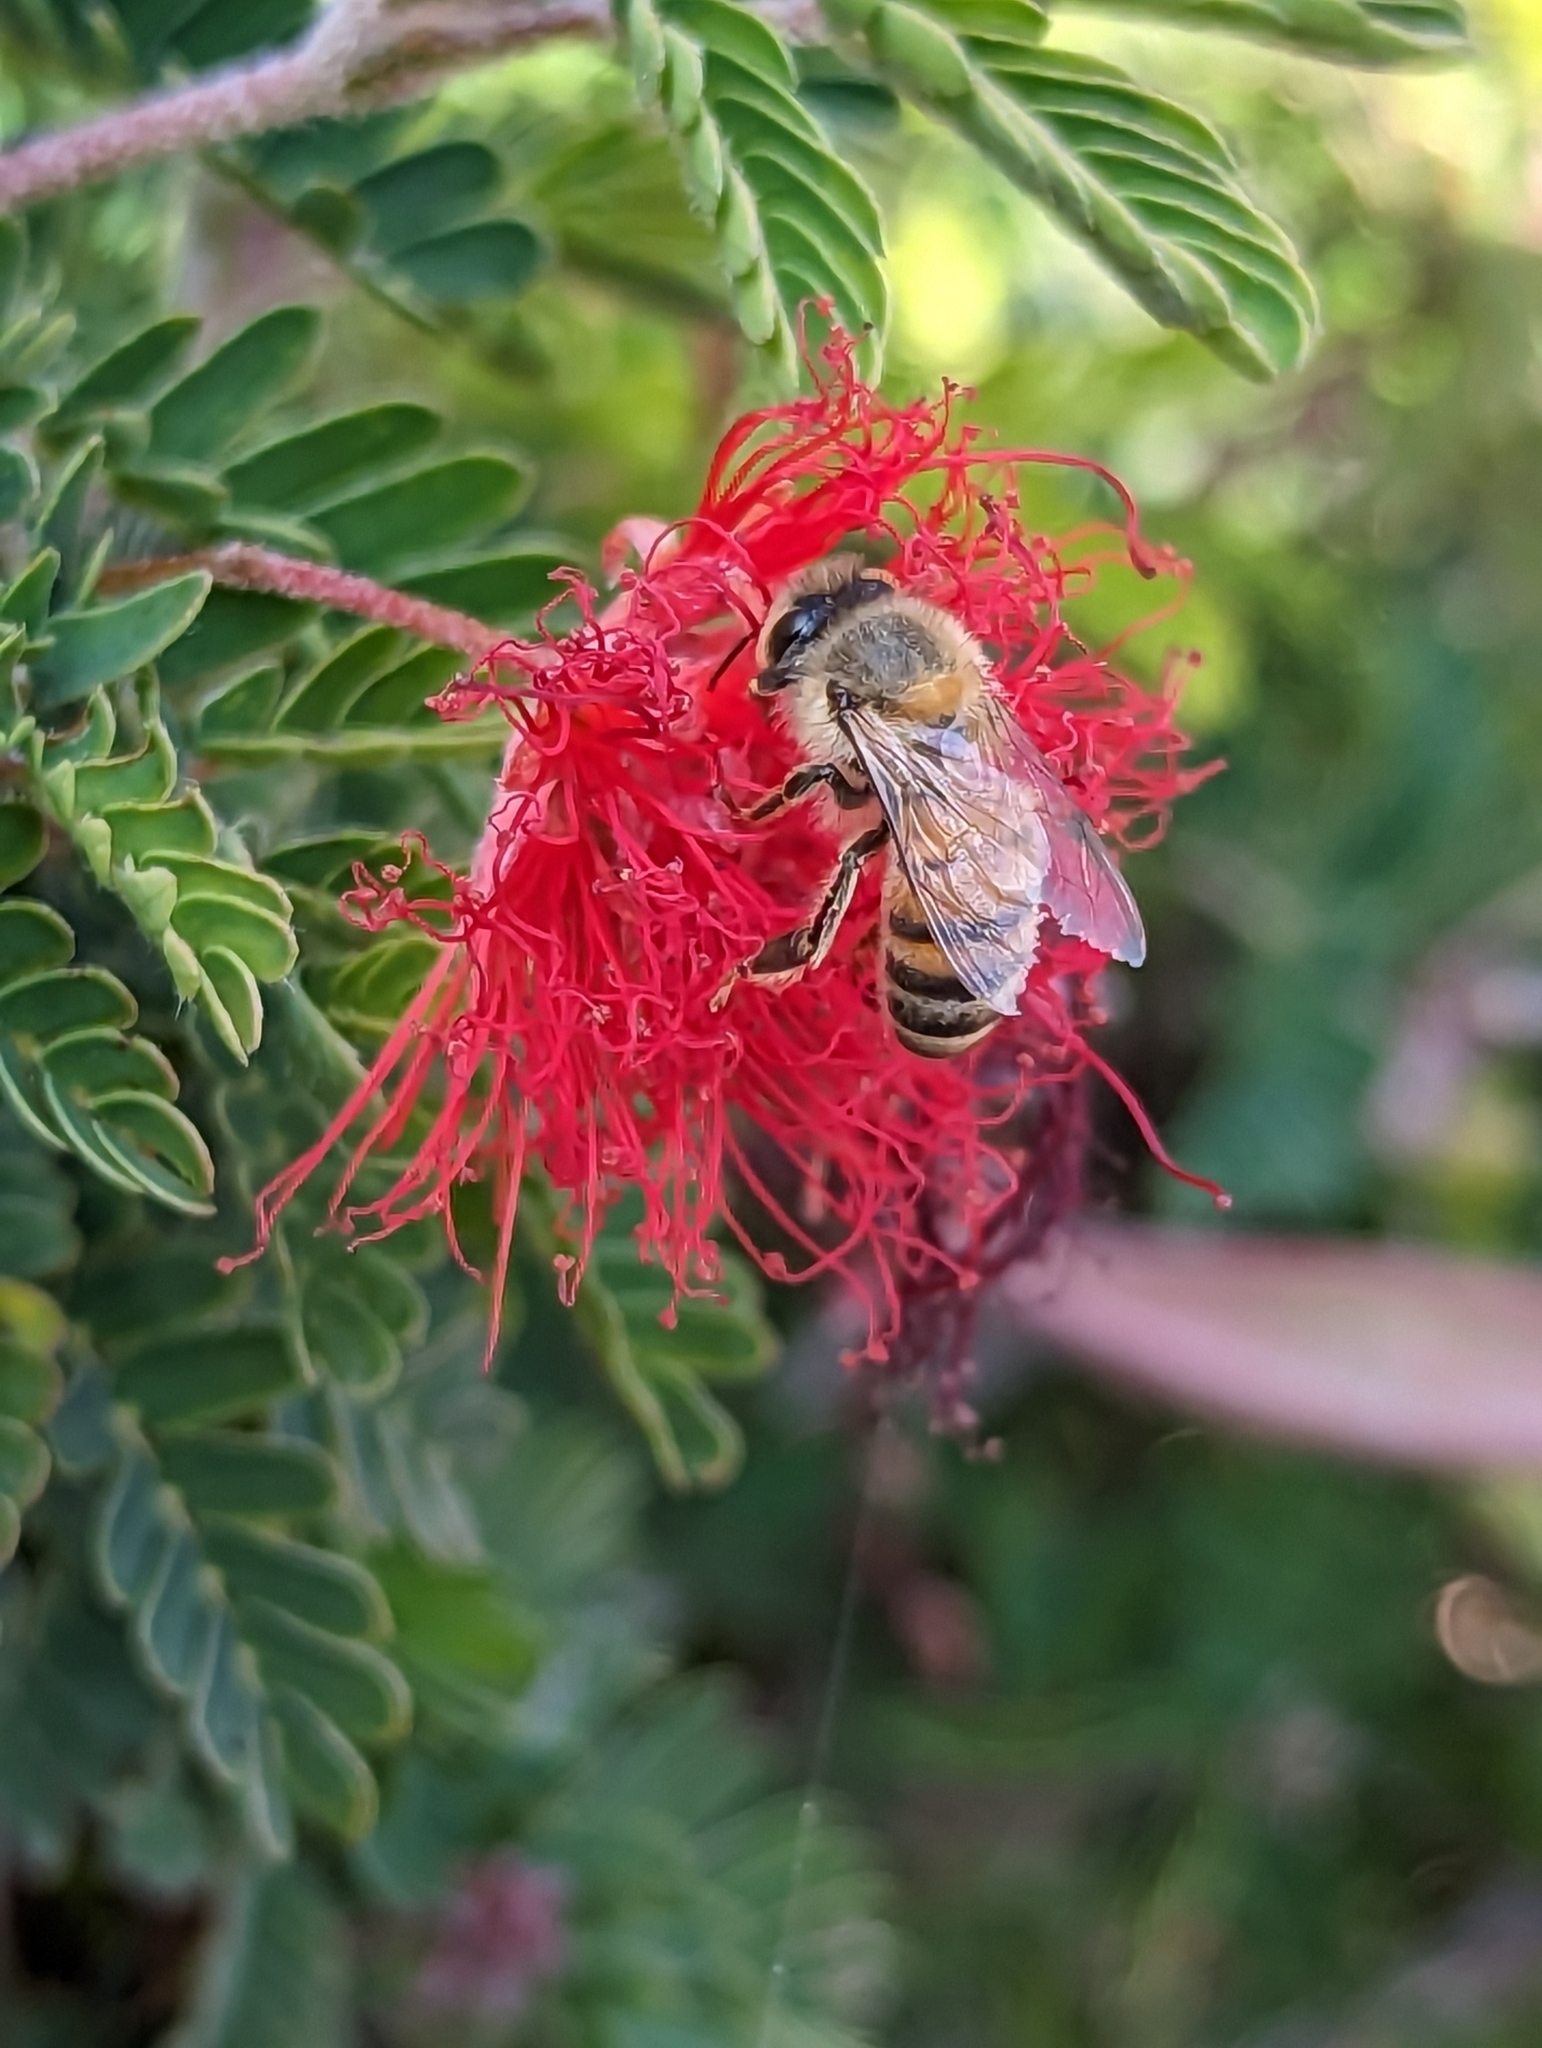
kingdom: Animalia
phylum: Arthropoda
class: Insecta
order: Hymenoptera
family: Apidae
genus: Apis
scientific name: Apis mellifera
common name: Honey bee
